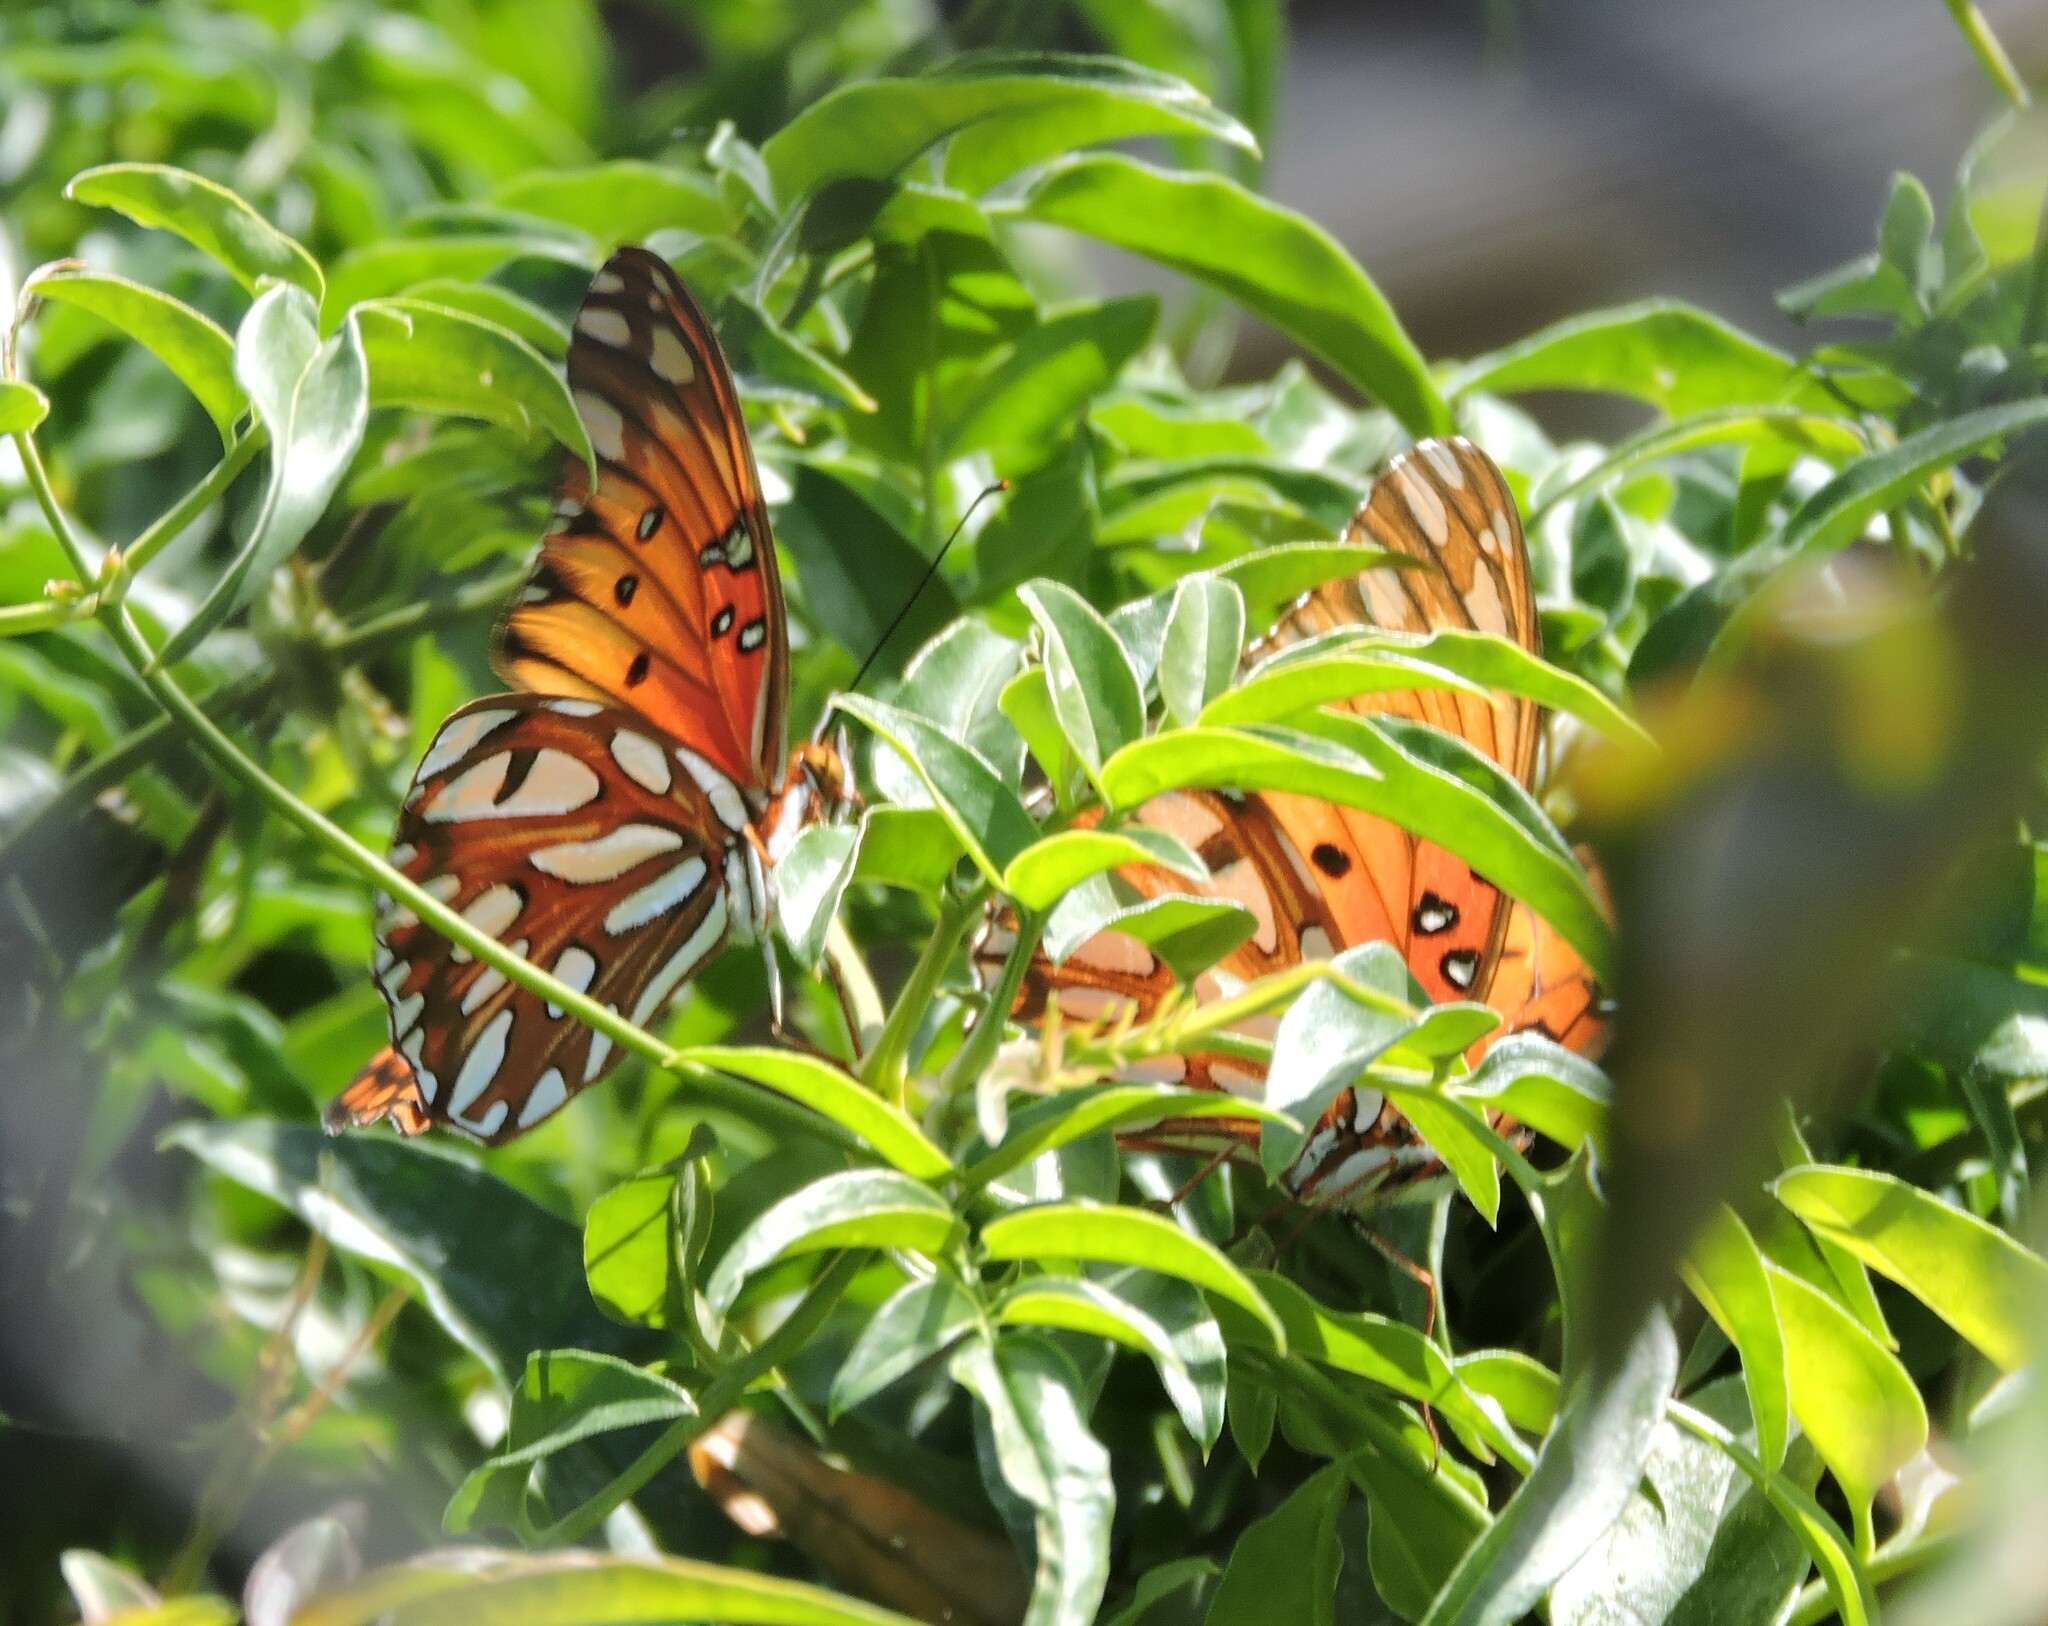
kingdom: Animalia
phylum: Arthropoda
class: Insecta
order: Lepidoptera
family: Nymphalidae
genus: Dione
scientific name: Dione vanillae
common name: Gulf fritillary
